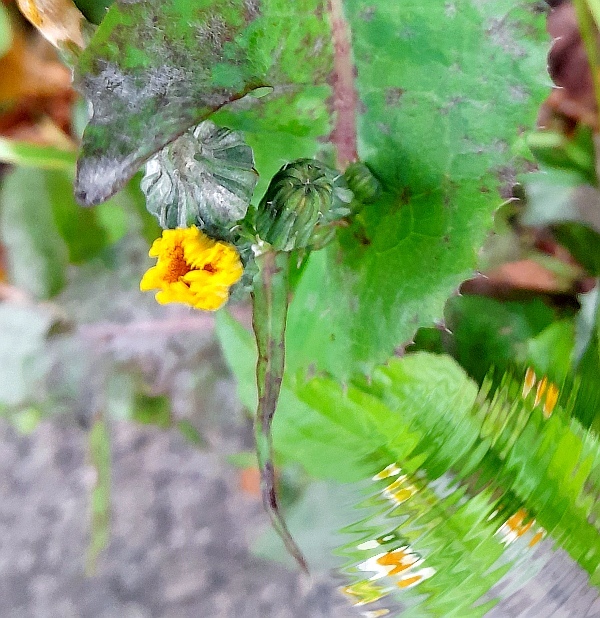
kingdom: Plantae
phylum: Tracheophyta
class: Magnoliopsida
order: Asterales
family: Asteraceae
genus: Sonchus
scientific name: Sonchus oleraceus
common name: Common sowthistle
